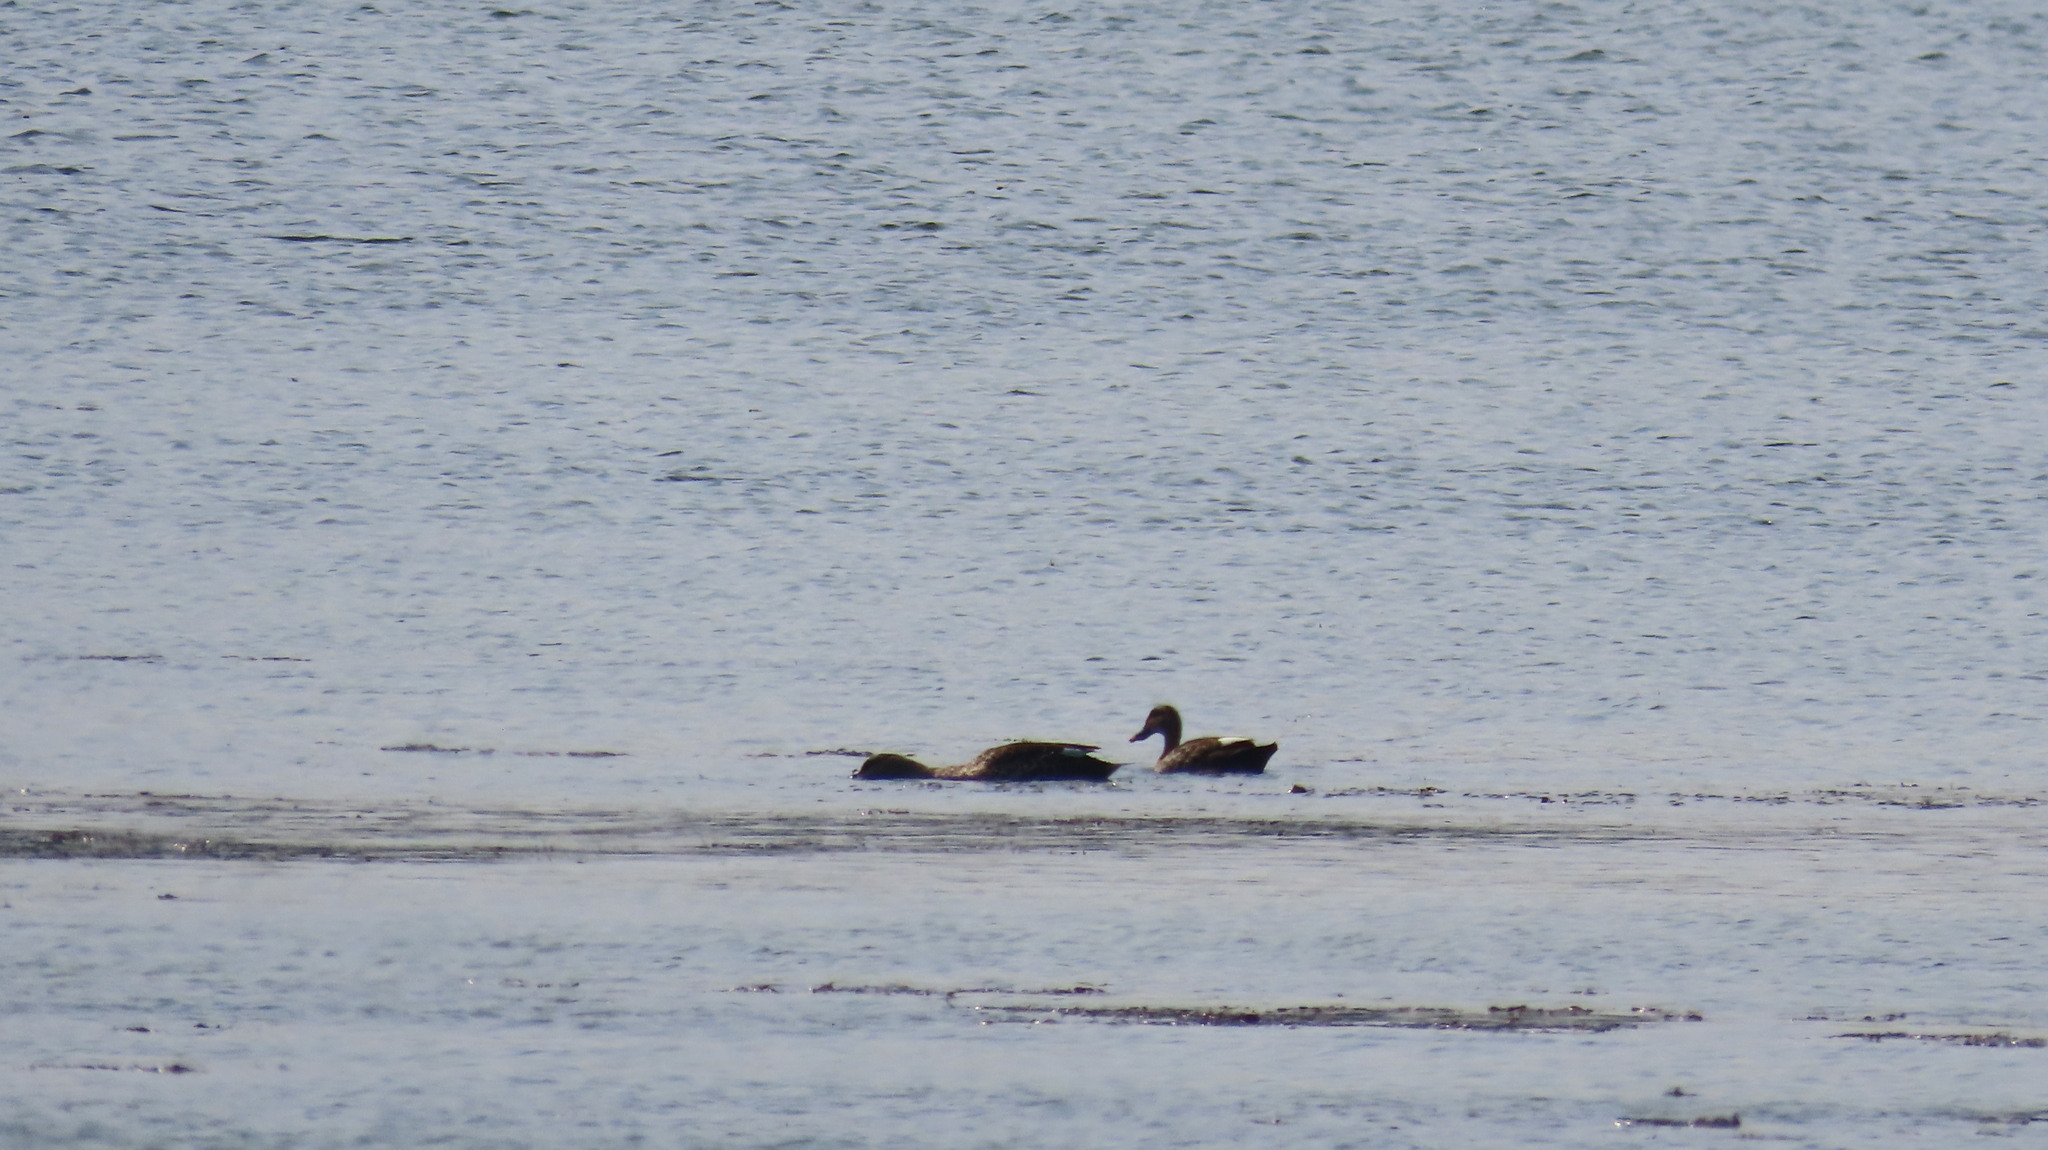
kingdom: Animalia
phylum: Chordata
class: Aves
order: Anseriformes
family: Anatidae
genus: Anas
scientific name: Anas poecilorhyncha
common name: Indian spot-billed duck
